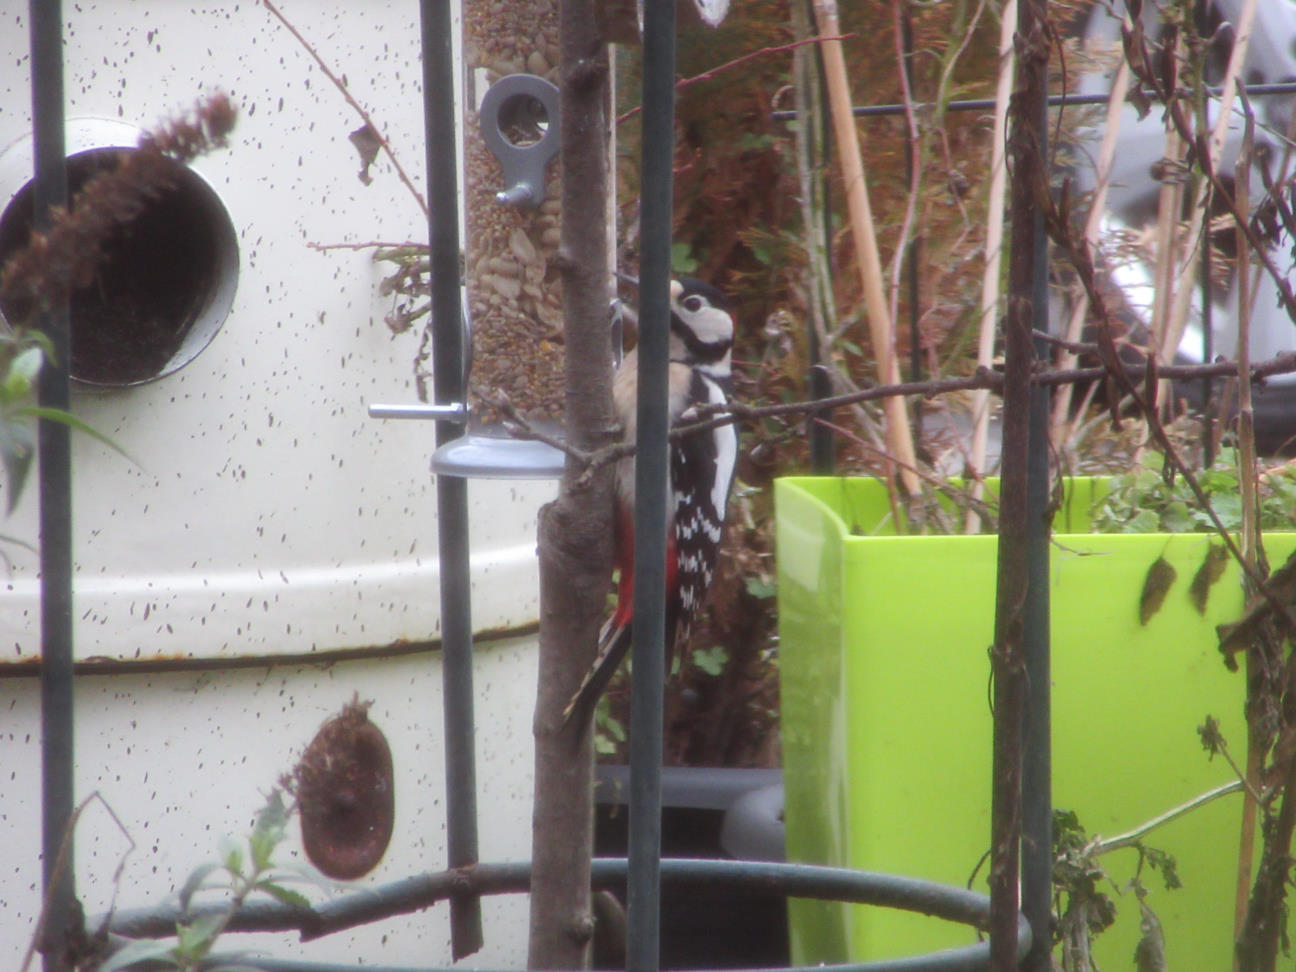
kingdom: Animalia
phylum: Chordata
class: Aves
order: Piciformes
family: Picidae
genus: Dendrocopos
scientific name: Dendrocopos major
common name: Great spotted woodpecker
